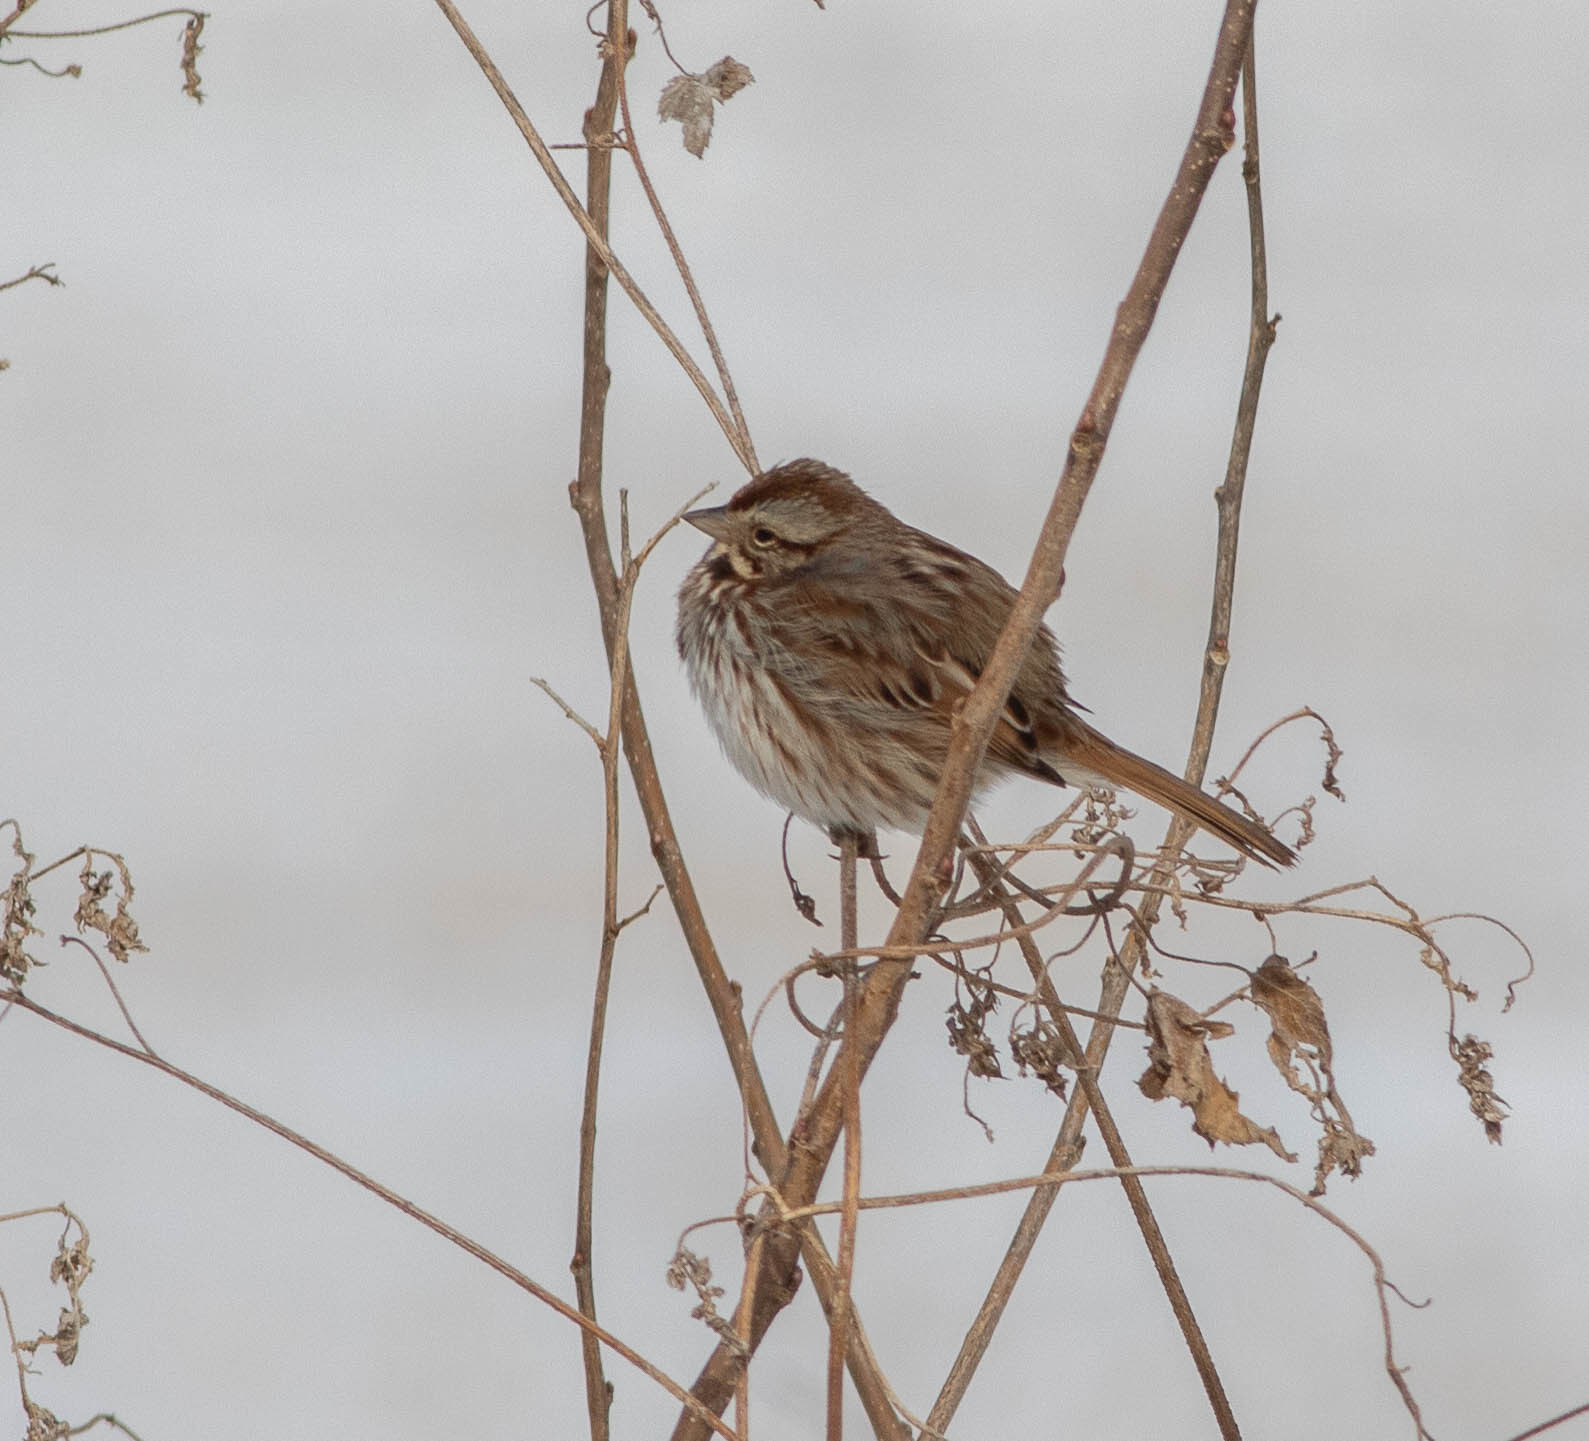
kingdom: Animalia
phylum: Chordata
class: Aves
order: Passeriformes
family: Passerellidae
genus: Melospiza
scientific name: Melospiza melodia
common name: Song sparrow
